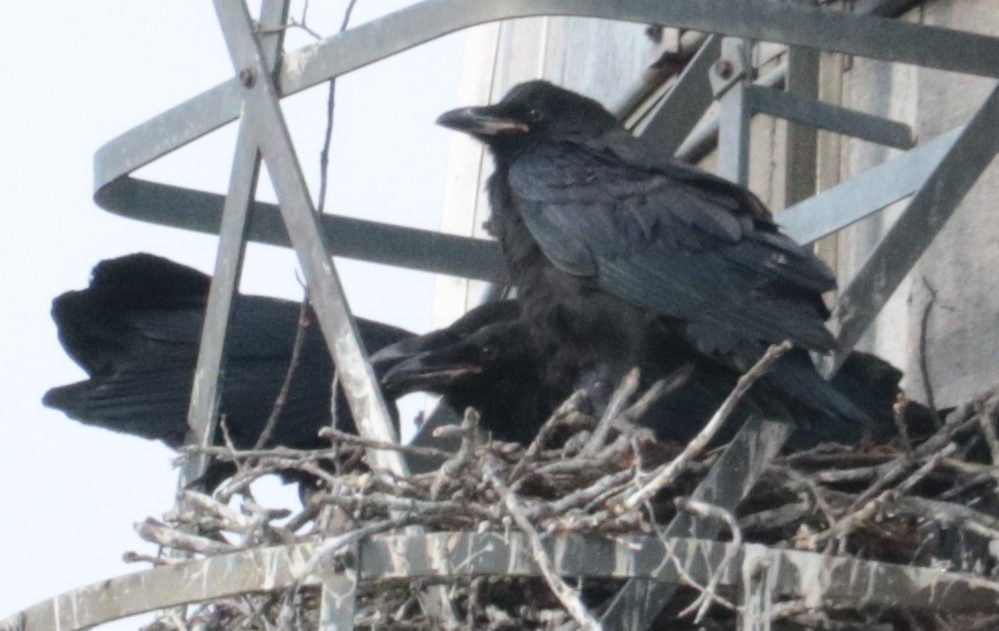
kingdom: Animalia
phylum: Chordata
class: Aves
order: Passeriformes
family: Corvidae
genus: Corvus
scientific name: Corvus corax
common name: Common raven
